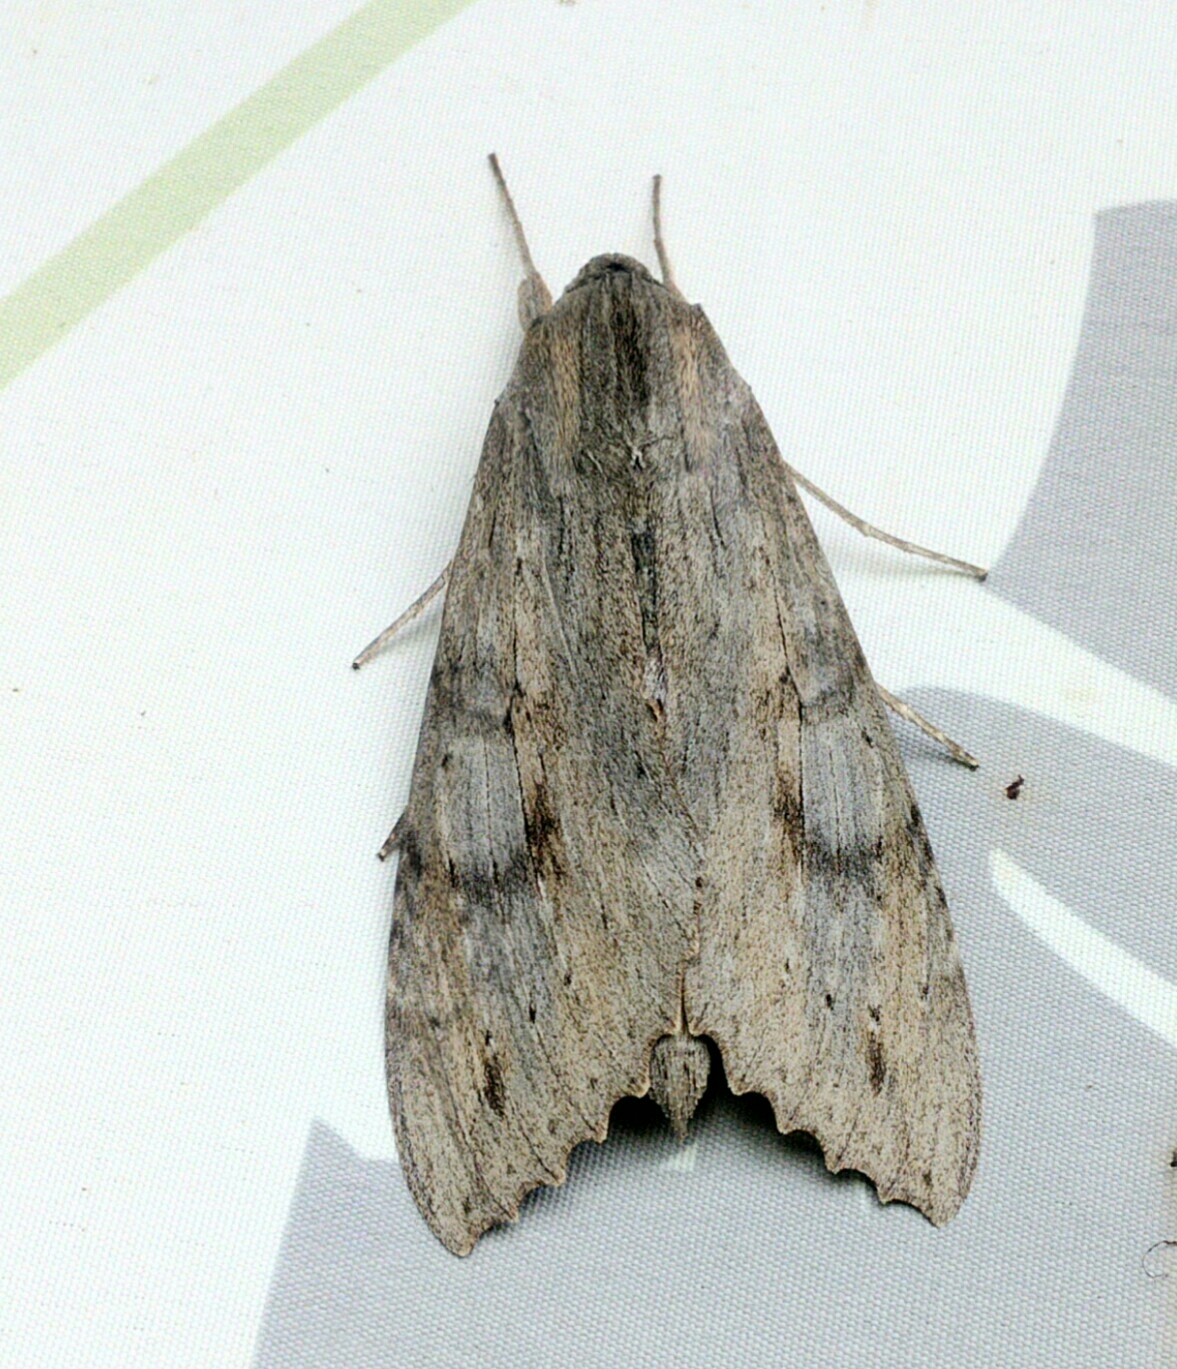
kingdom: Animalia
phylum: Arthropoda
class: Insecta
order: Lepidoptera
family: Sphingidae
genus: Erinnyis
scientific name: Erinnyis ello
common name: Ello sphinx
